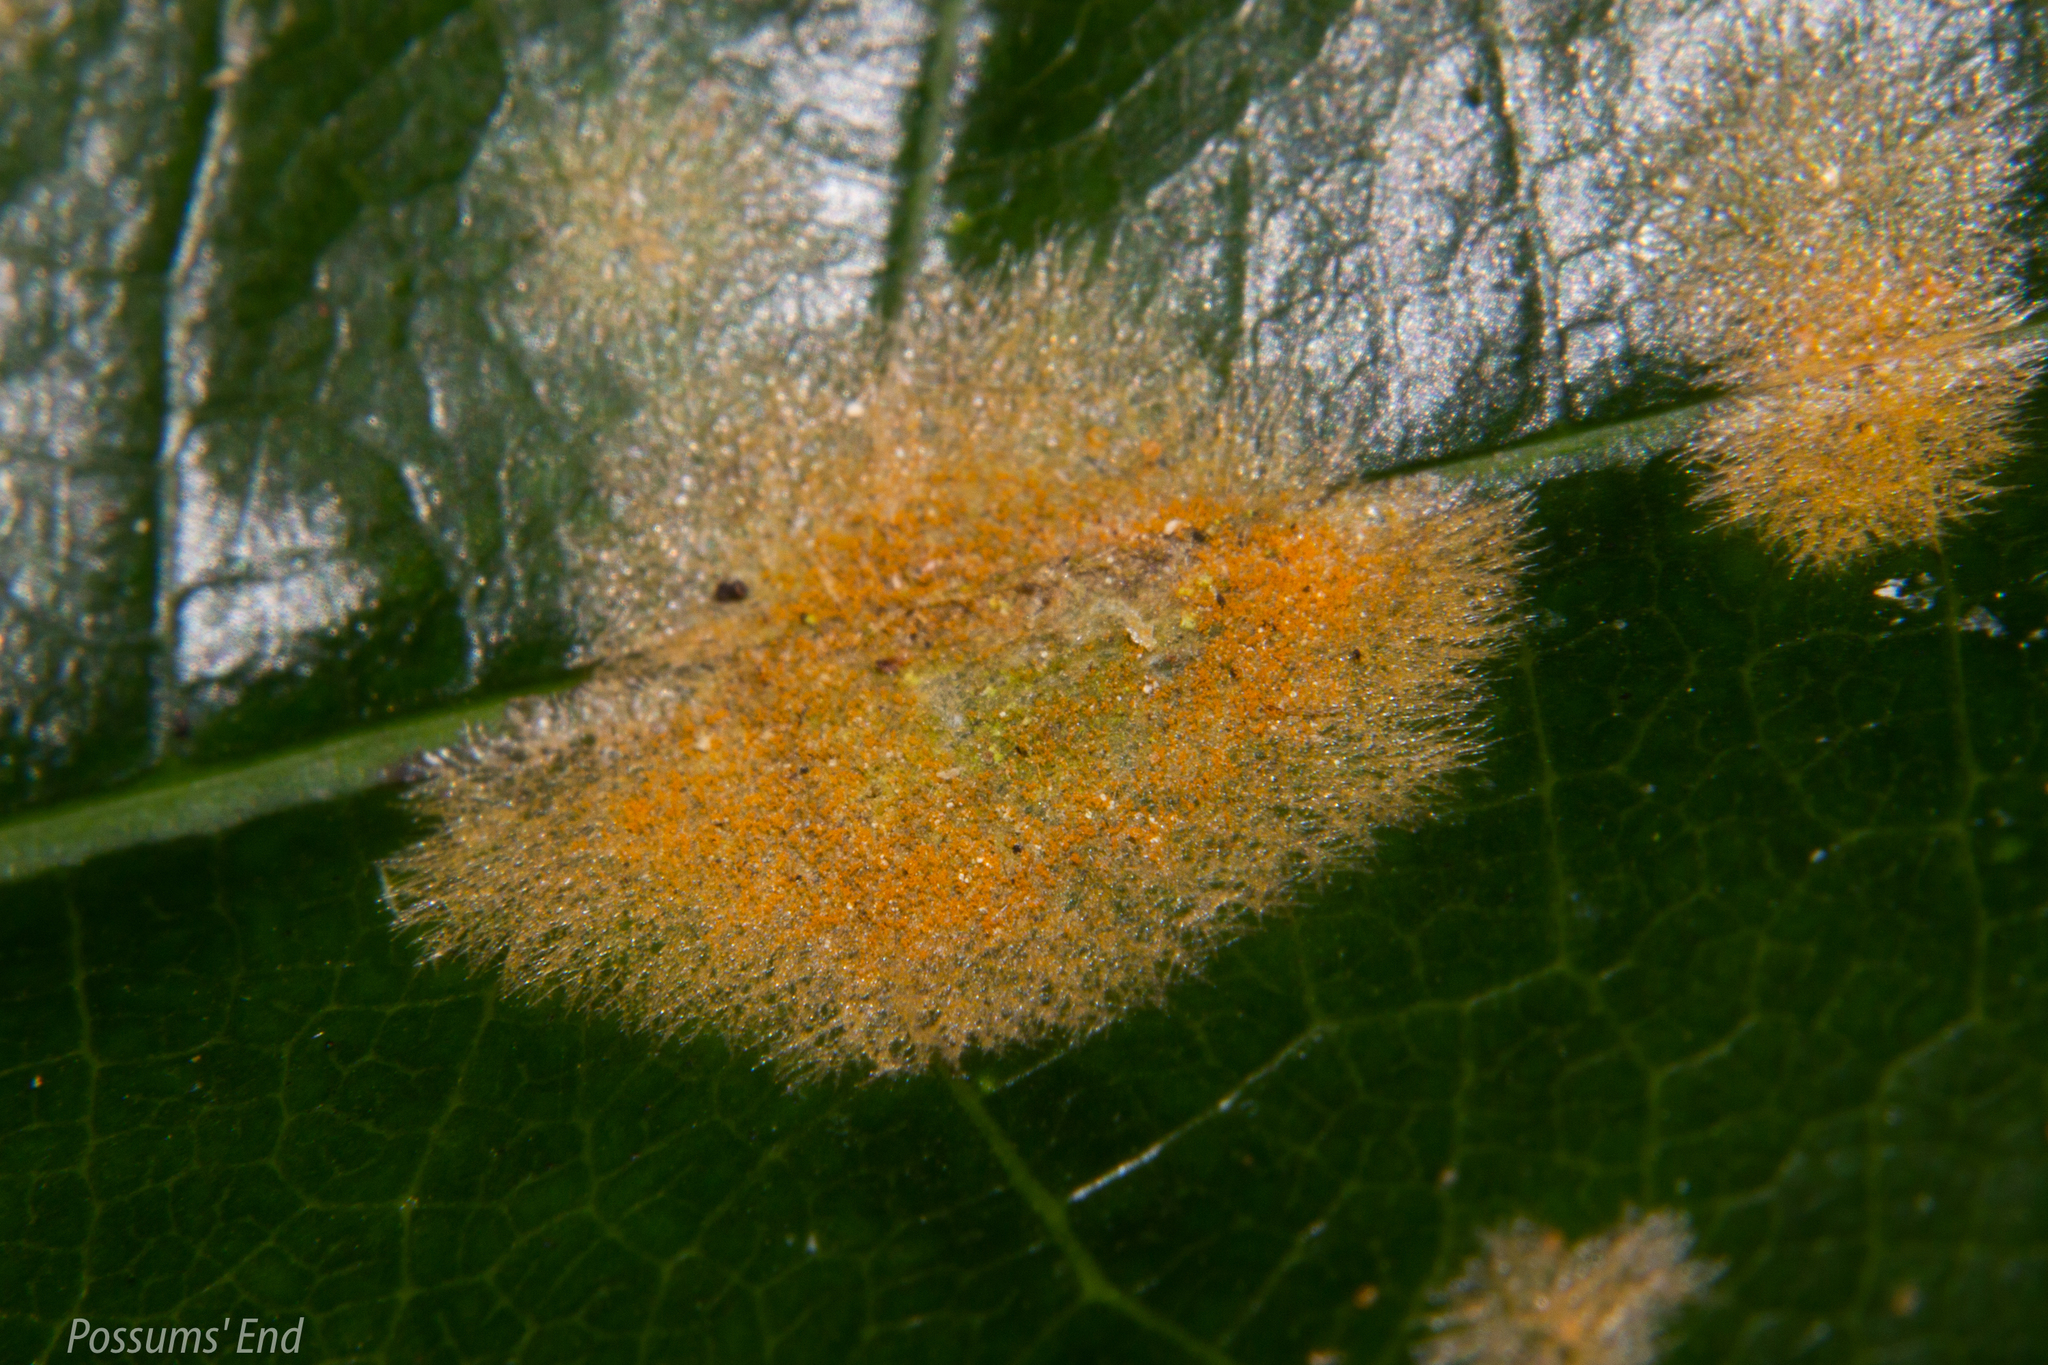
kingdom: Plantae
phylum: Chlorophyta
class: Ulvophyceae
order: Trentepohliales
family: Trentepohliaceae
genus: Cephaleuros
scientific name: Cephaleuros
